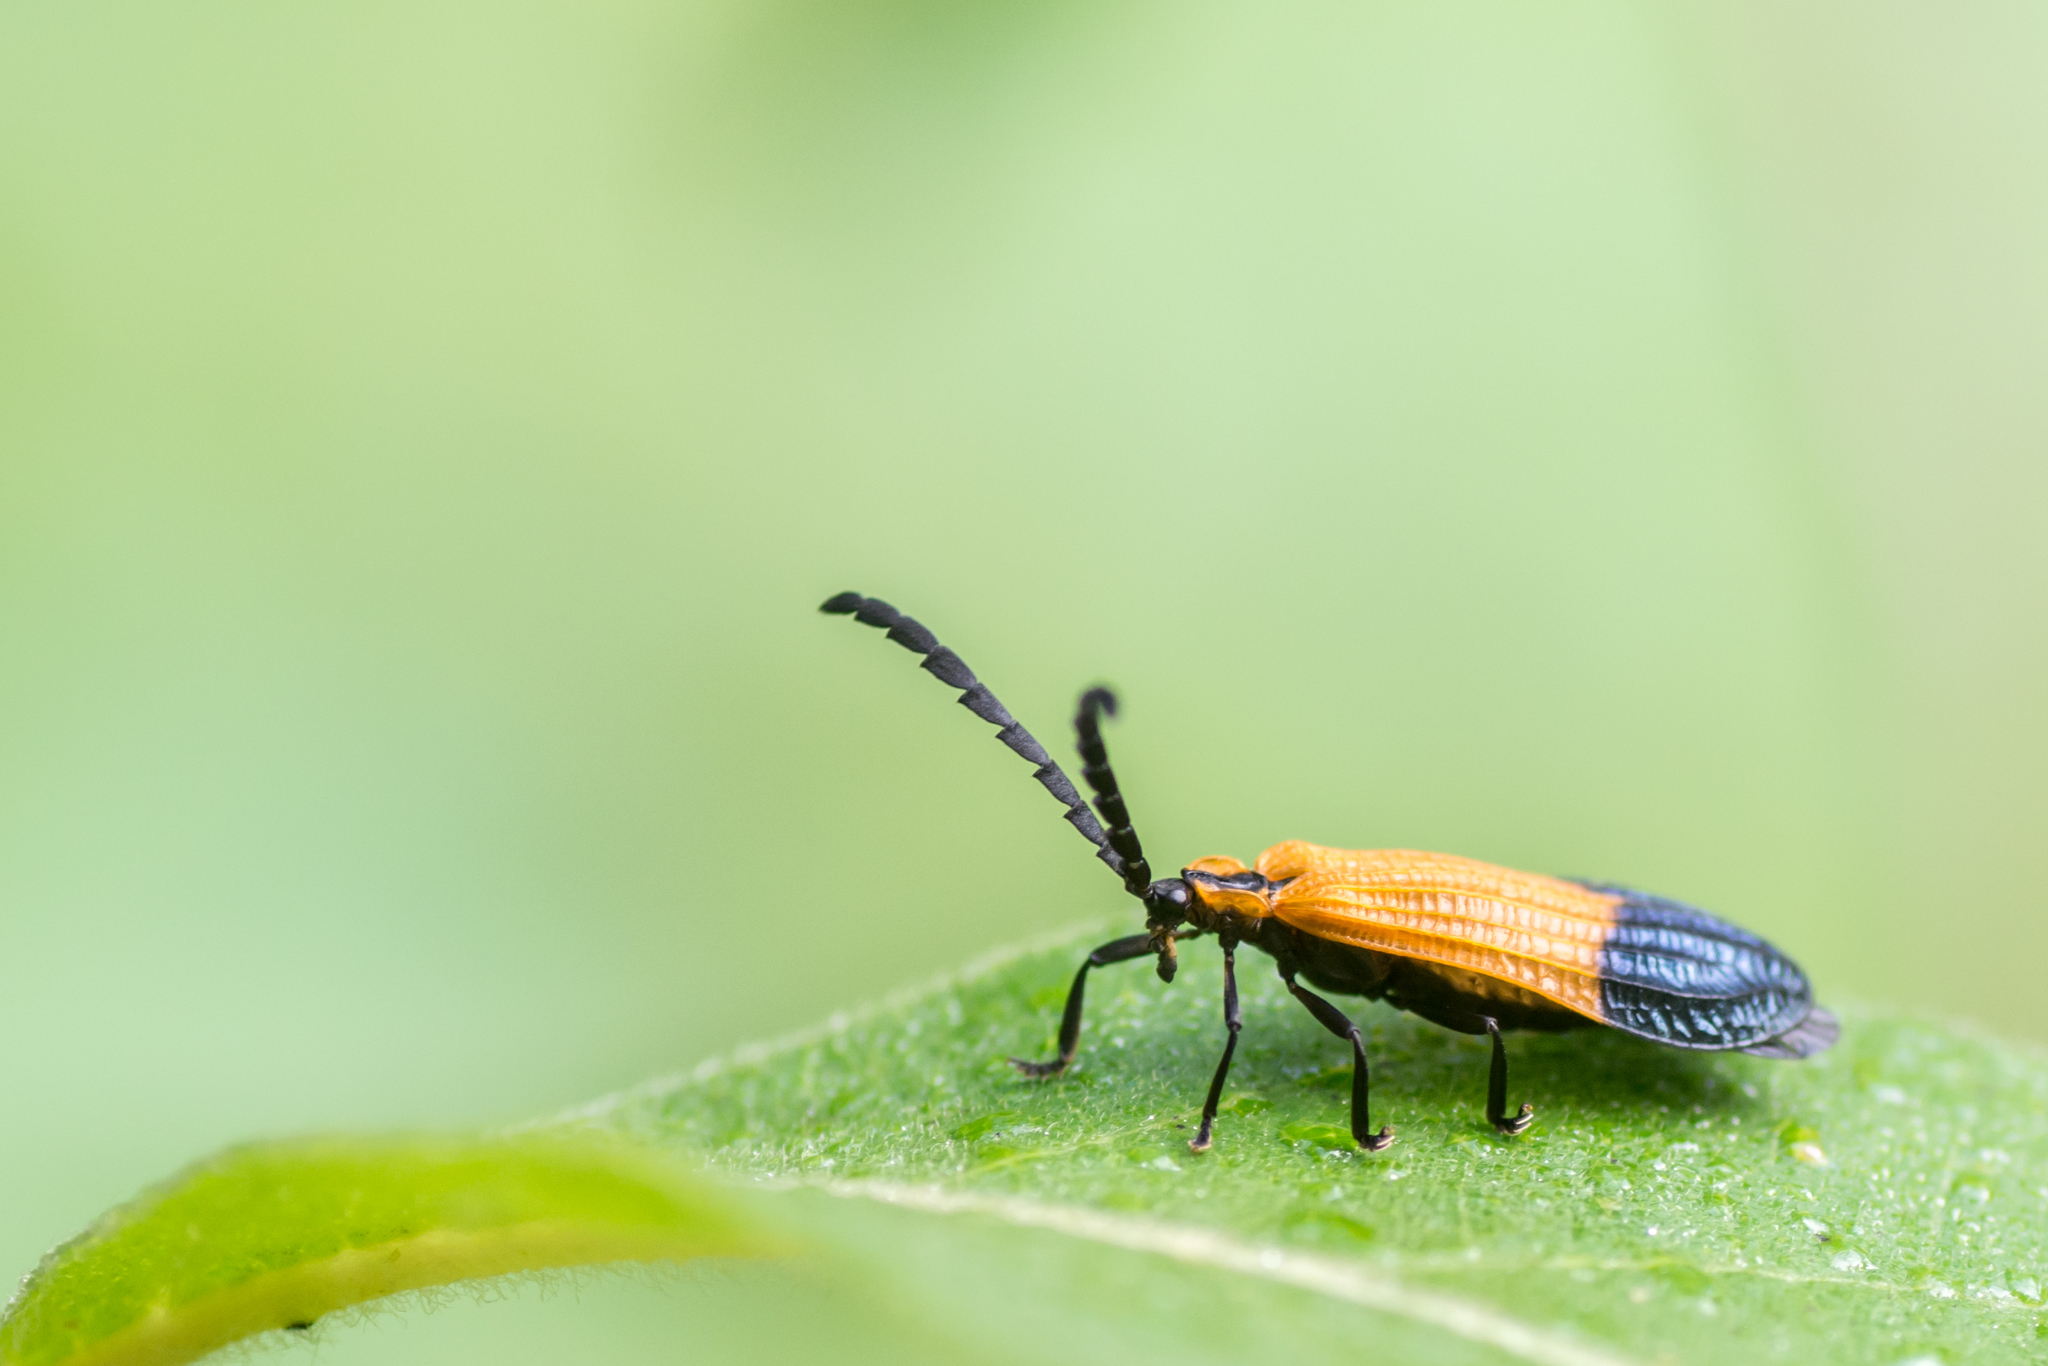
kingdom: Animalia
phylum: Arthropoda
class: Insecta
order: Coleoptera
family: Lycidae
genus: Calopteron
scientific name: Calopteron terminale
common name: End band net-winged beetle
